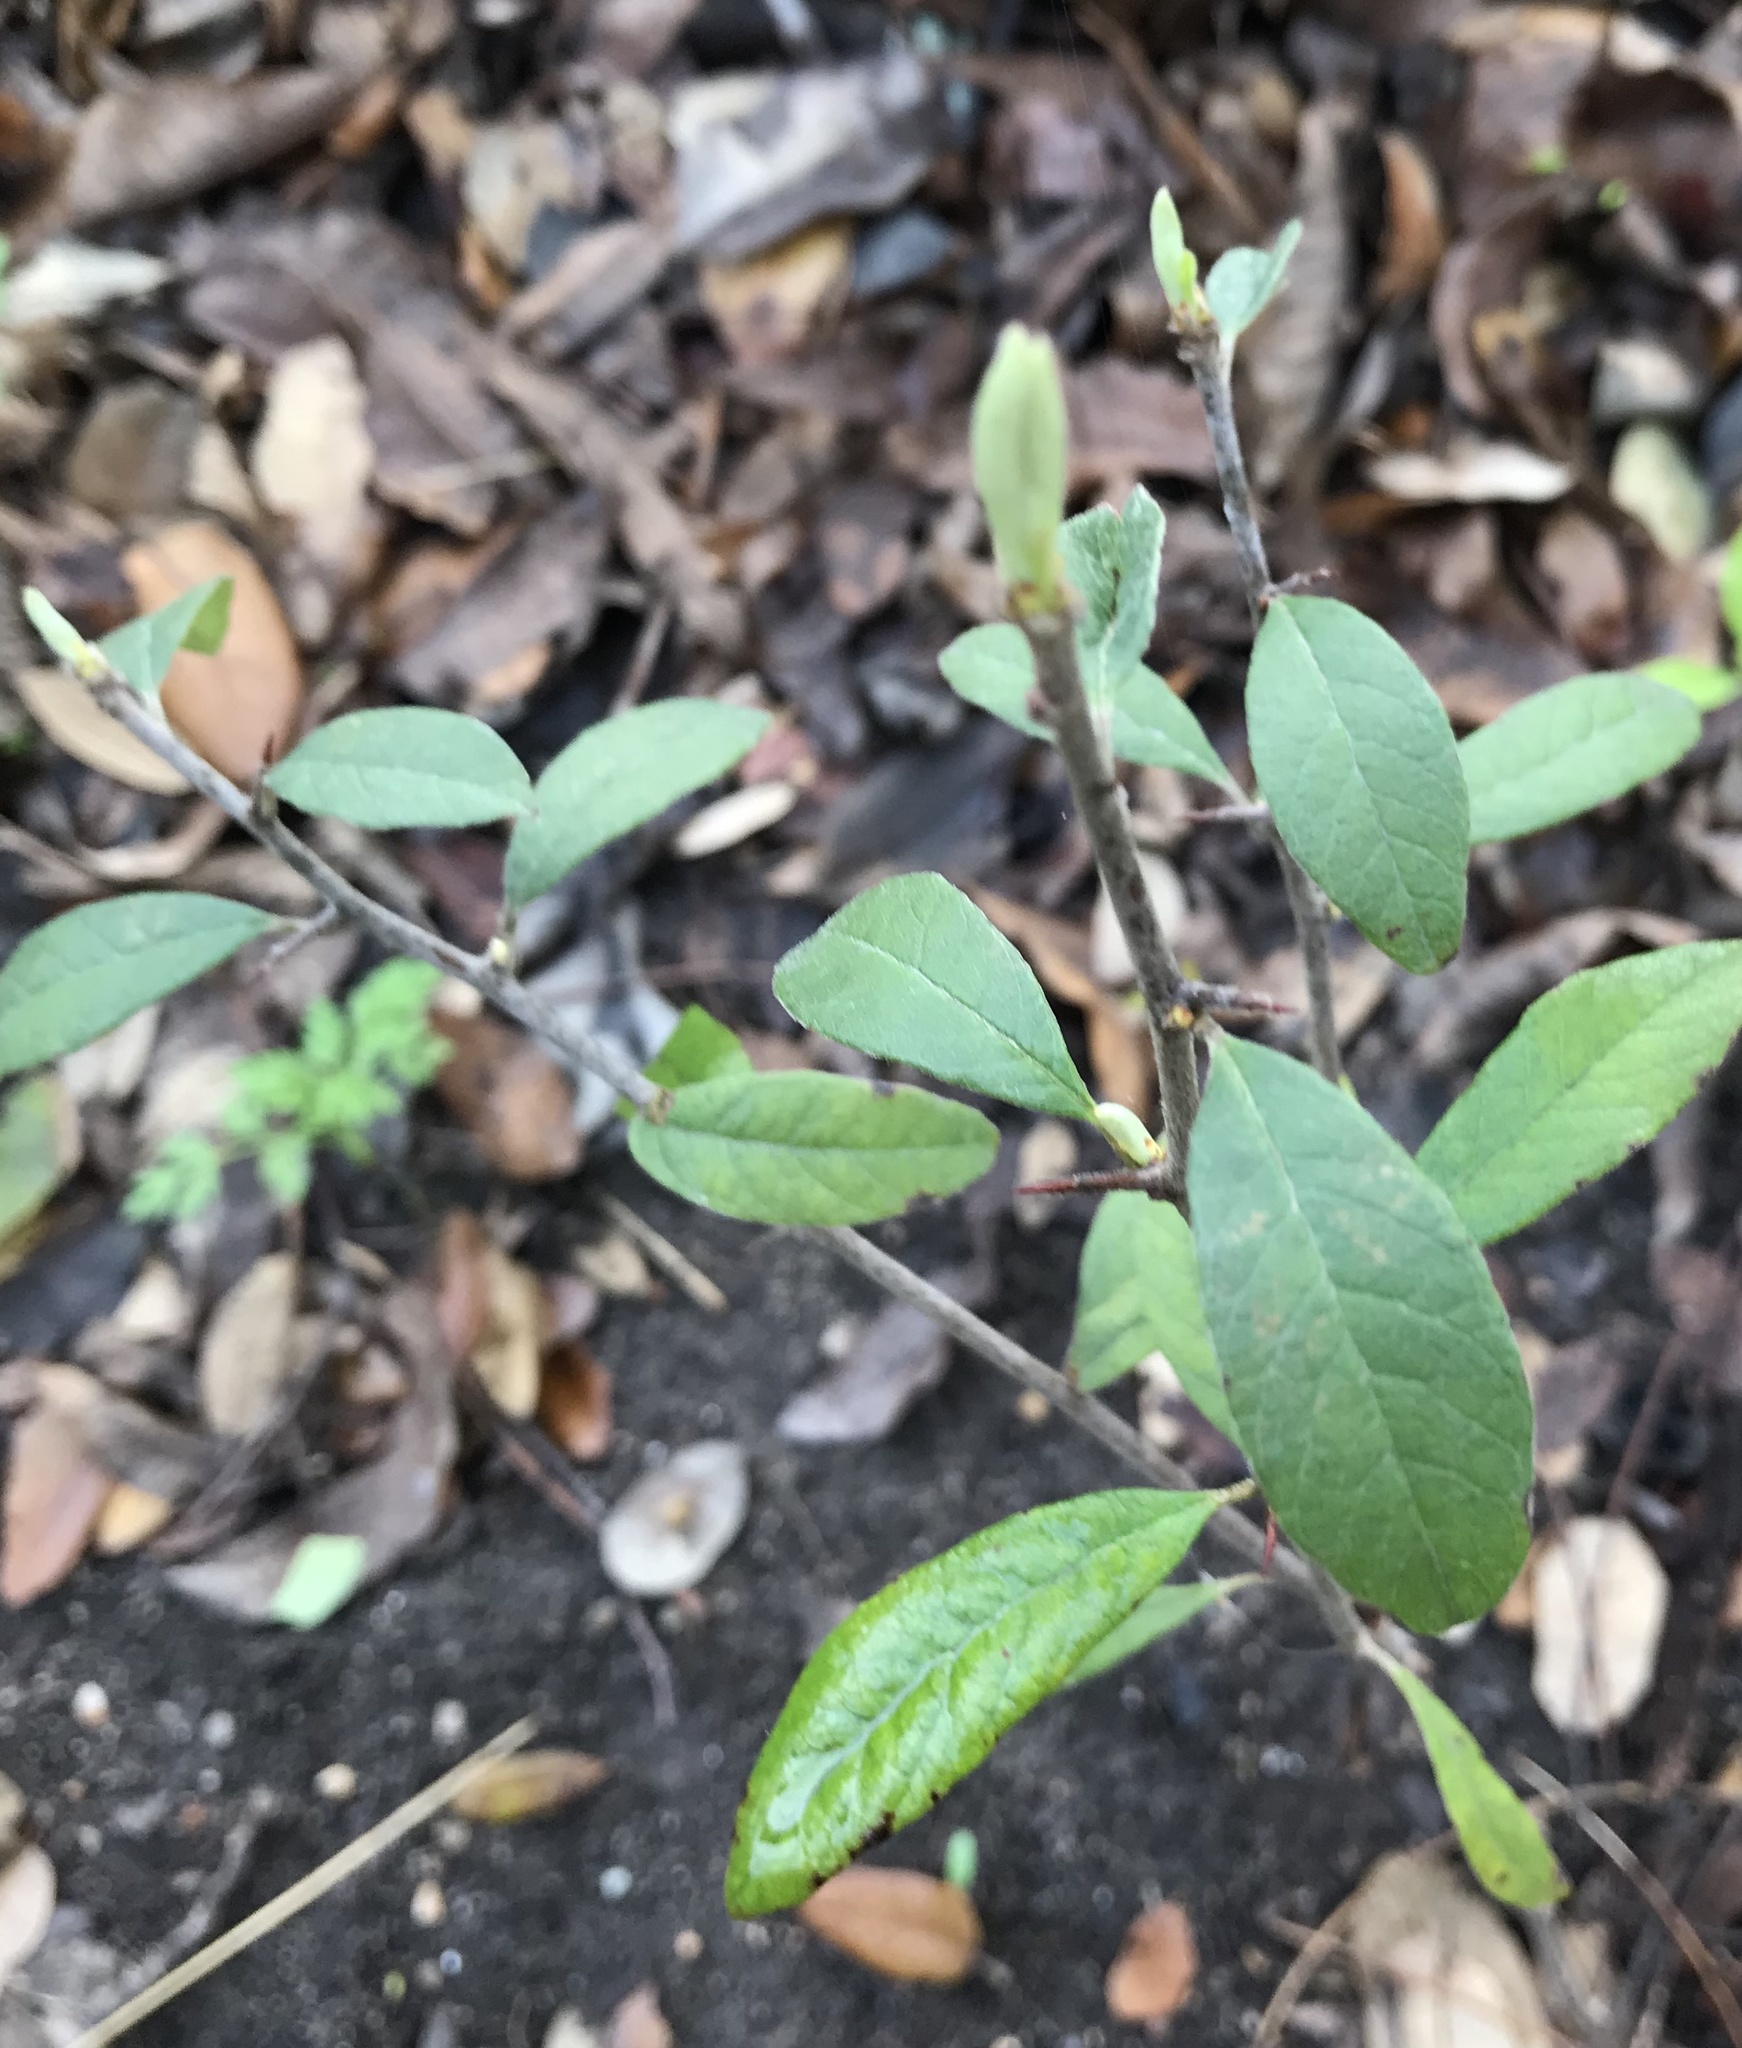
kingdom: Plantae
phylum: Tracheophyta
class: Magnoliopsida
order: Ericales
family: Sapotaceae
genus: Sideroxylon
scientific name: Sideroxylon lanuginosum
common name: Chittamwood
